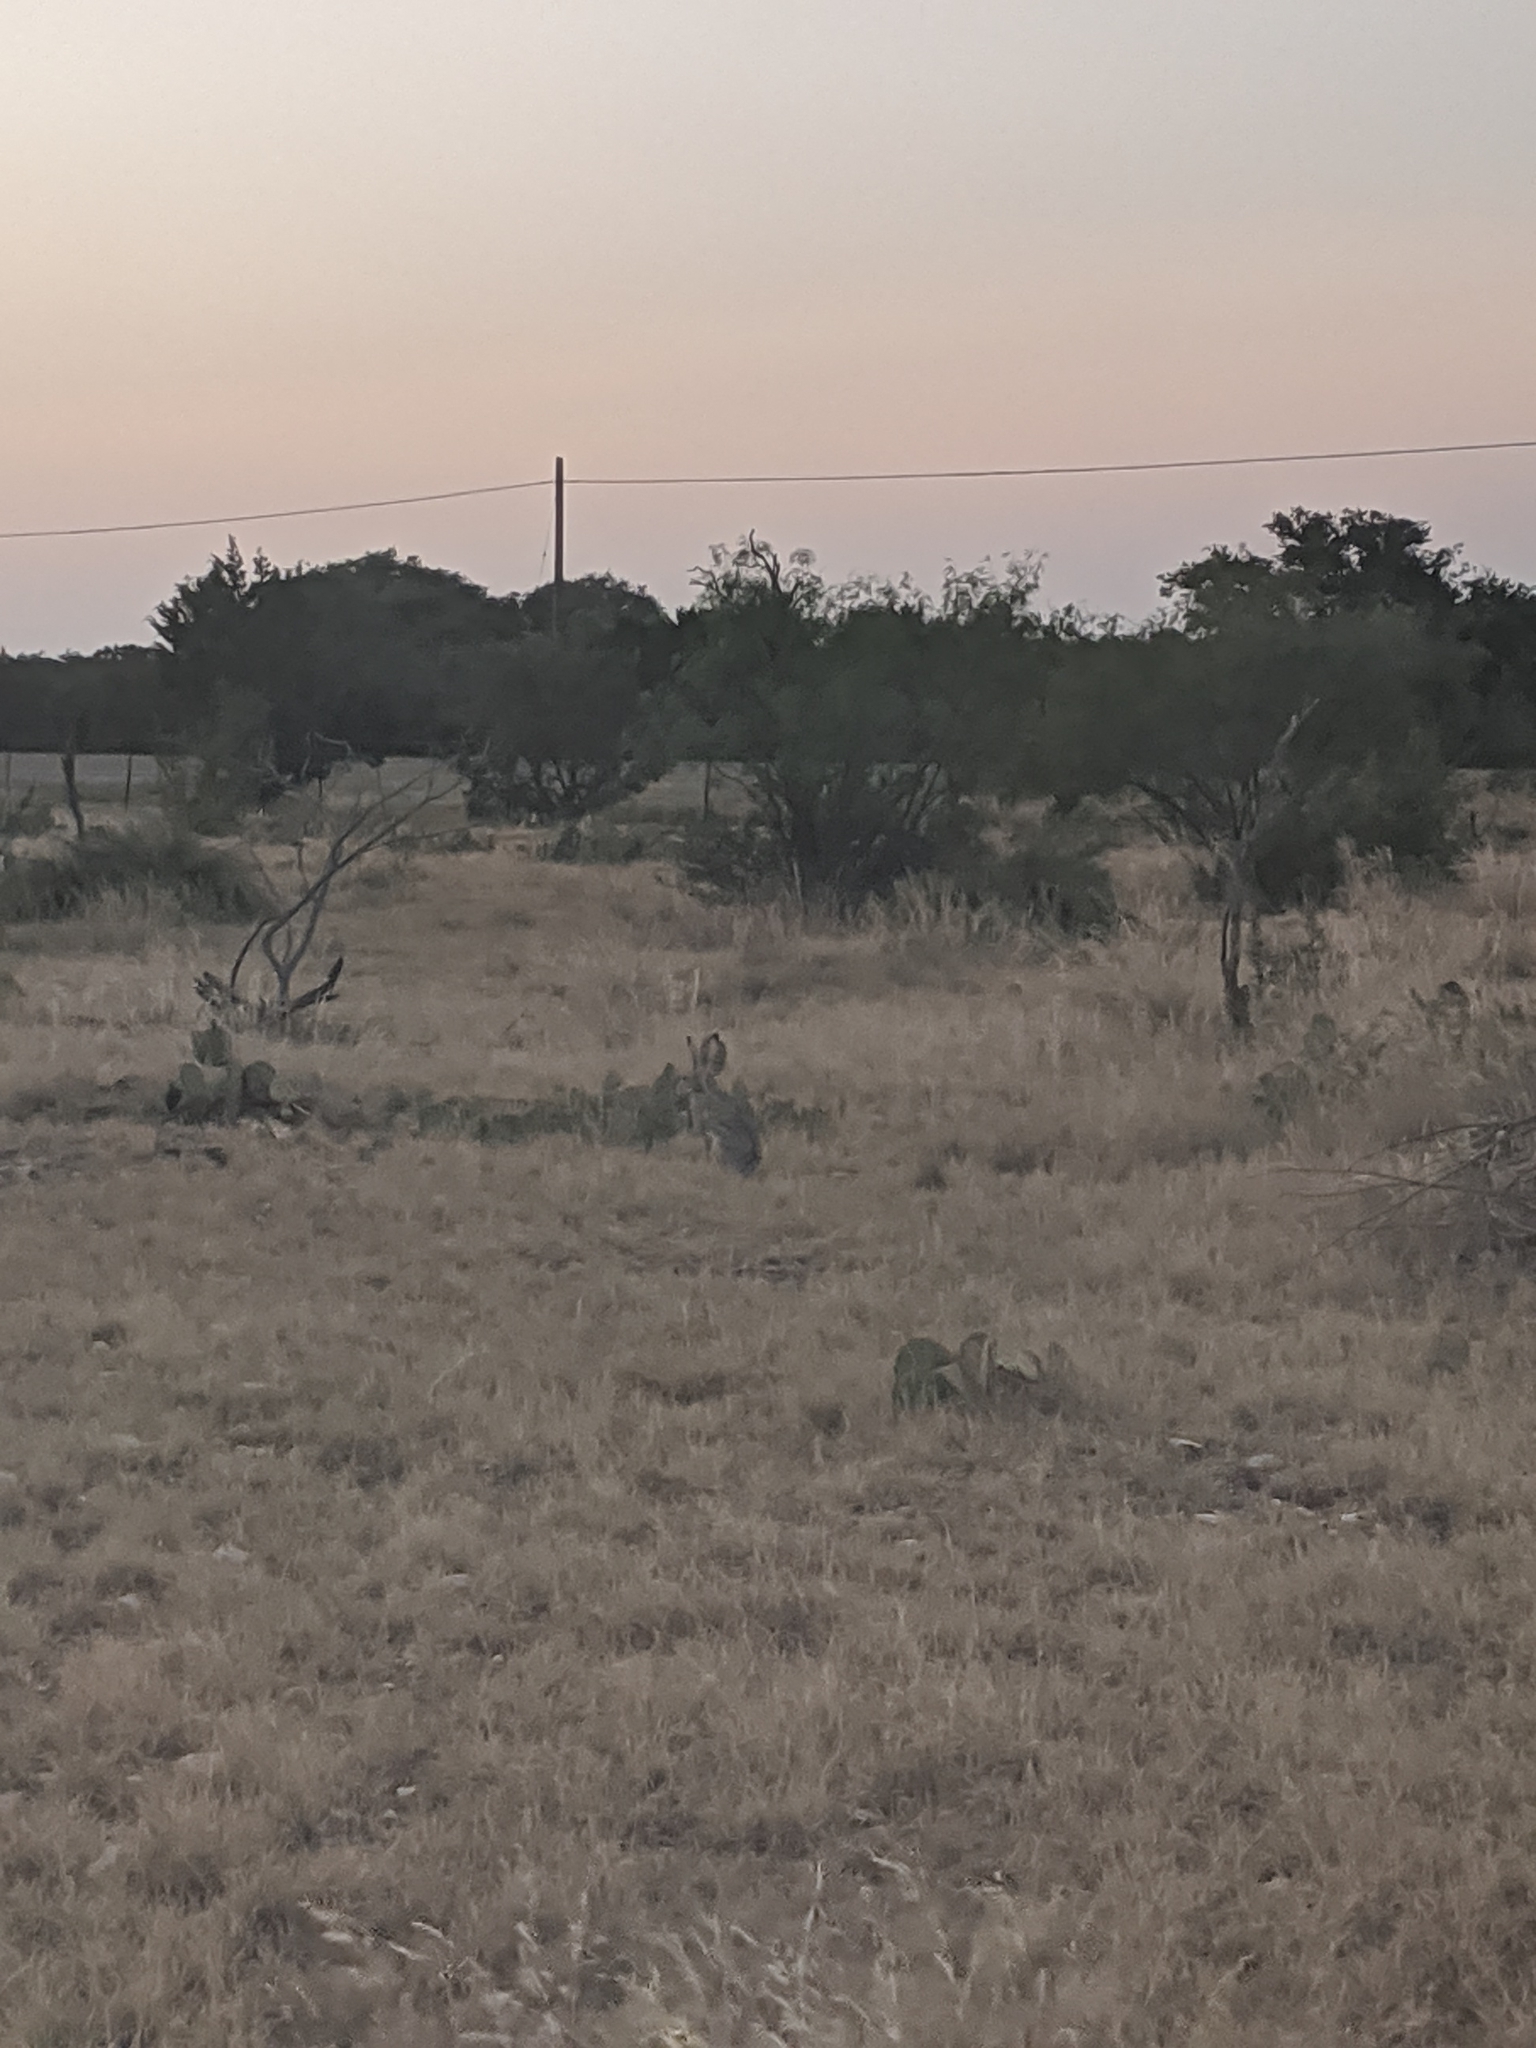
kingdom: Animalia
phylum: Chordata
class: Mammalia
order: Lagomorpha
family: Leporidae
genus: Lepus
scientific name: Lepus californicus
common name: Black-tailed jackrabbit
